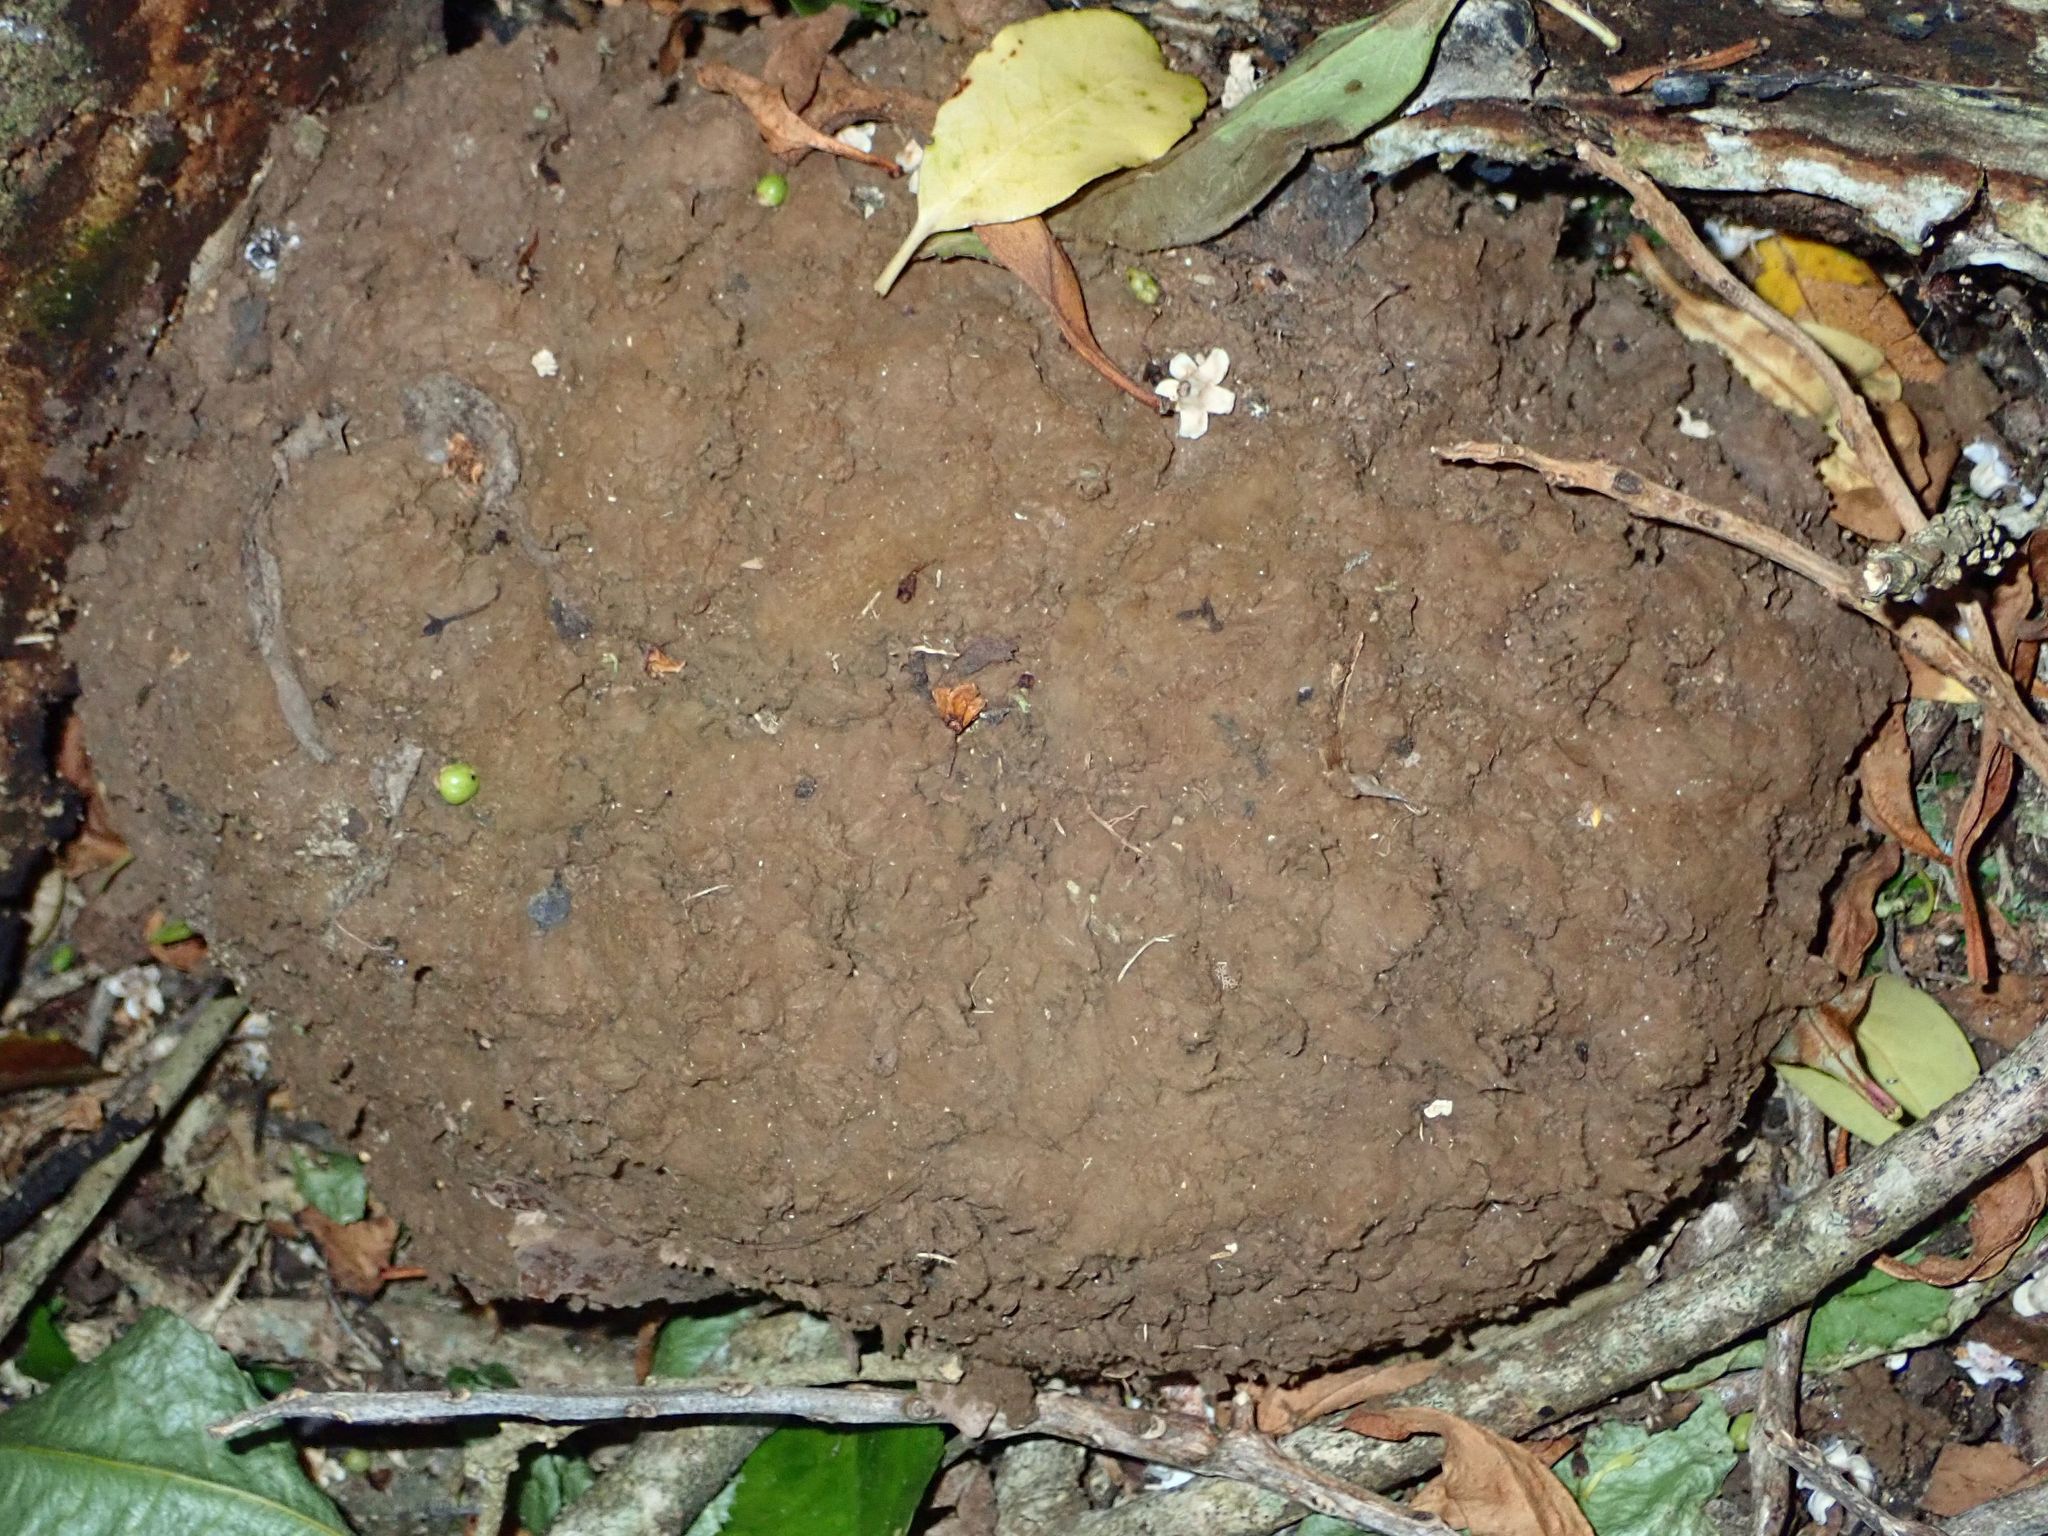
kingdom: Fungi
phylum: Basidiomycota
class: Agaricomycetes
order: Agaricales
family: Lycoperdaceae
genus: Calvatia
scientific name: Calvatia gigantea
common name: Giant puffball
